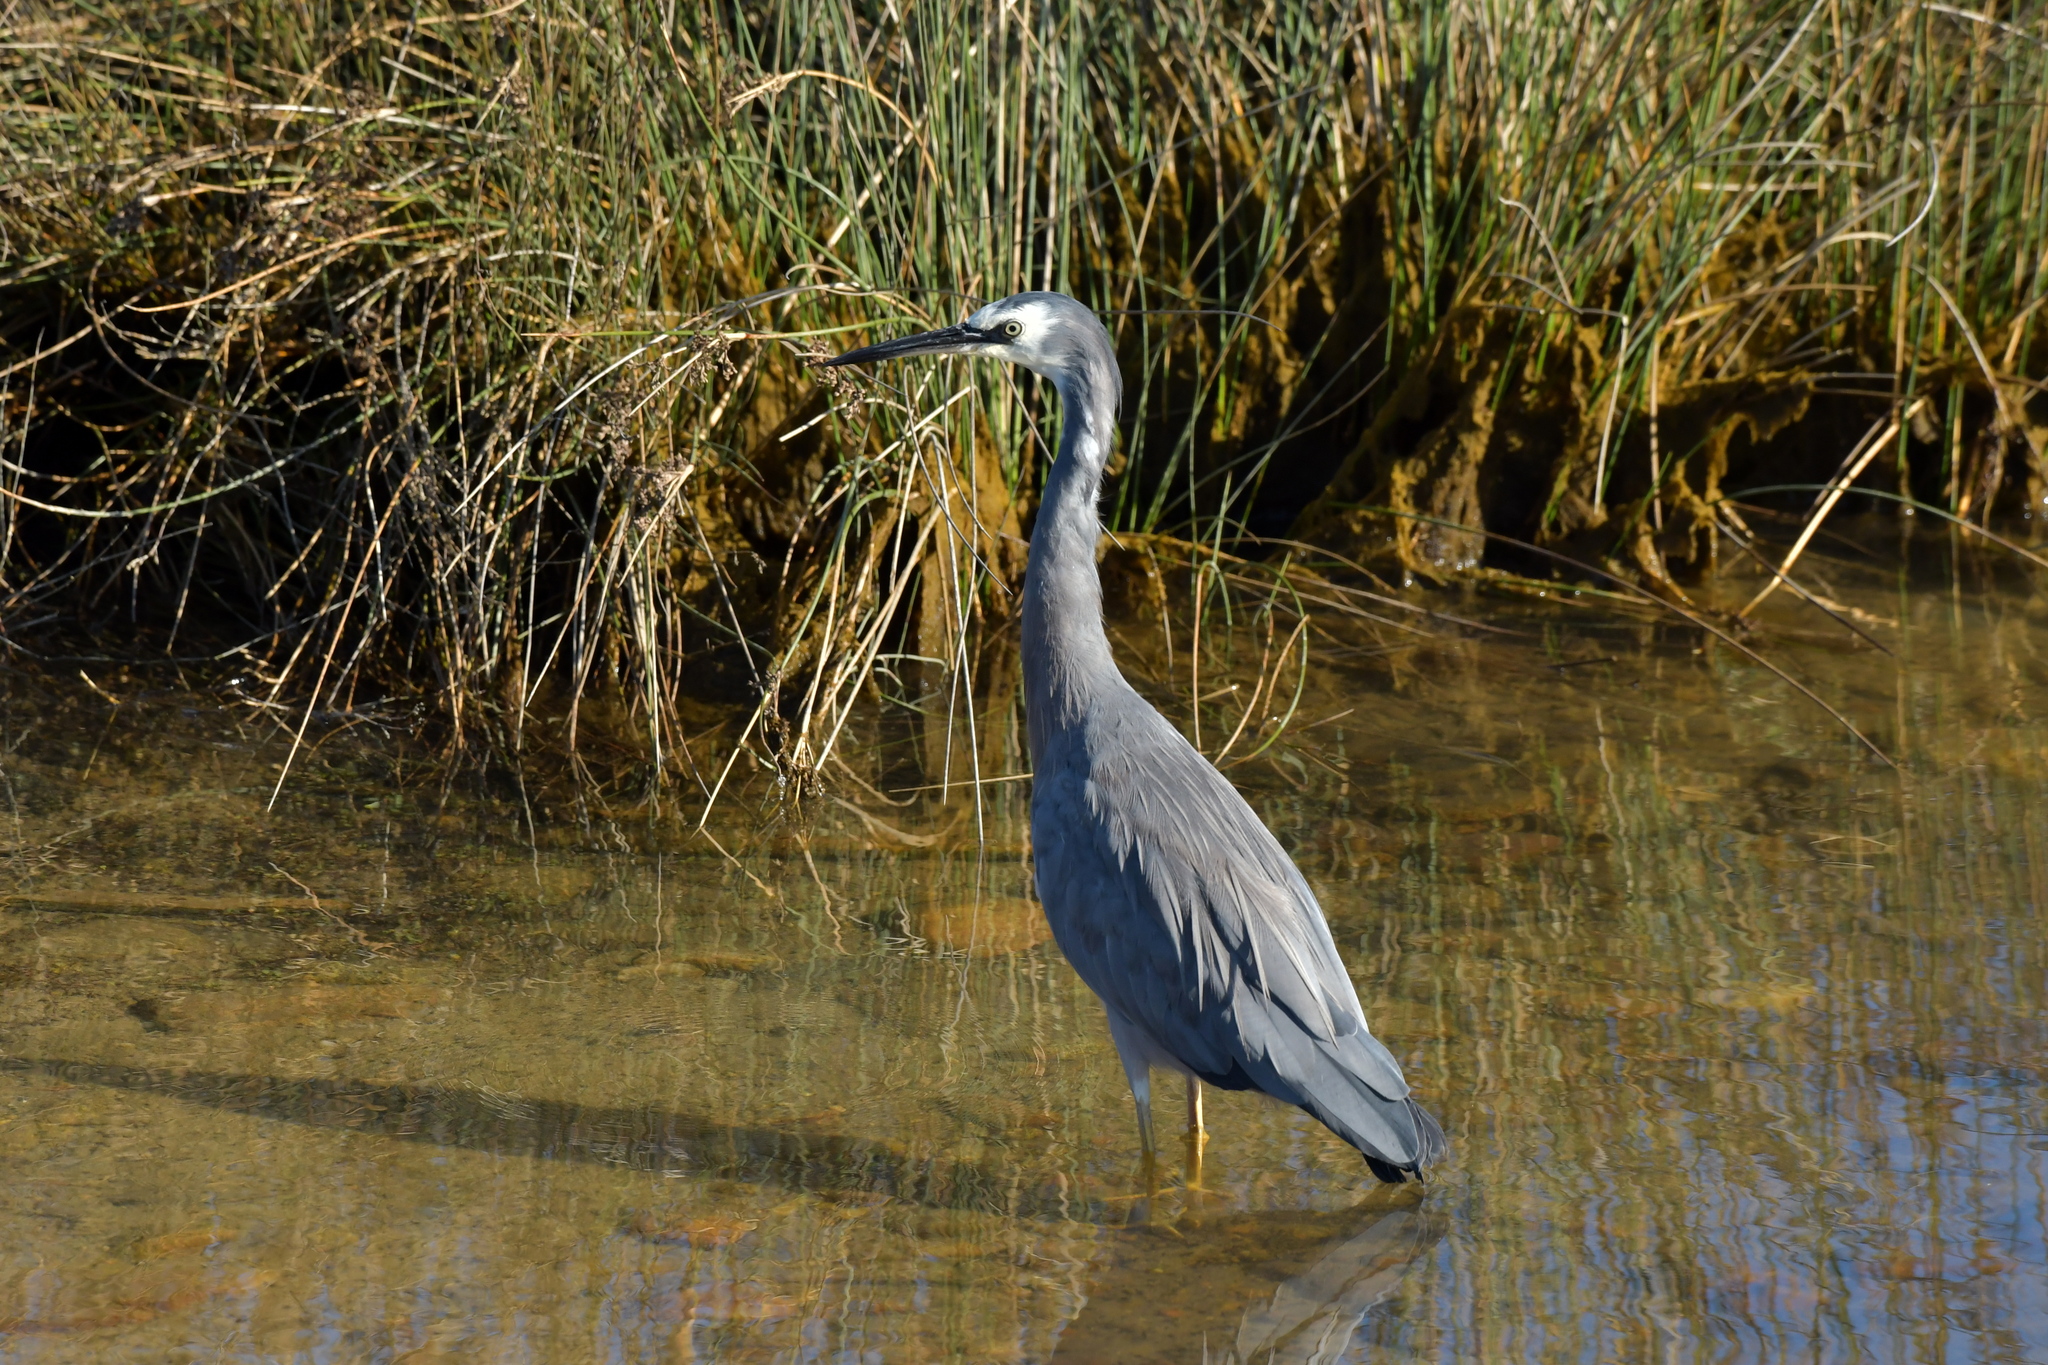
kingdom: Animalia
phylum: Chordata
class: Aves
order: Pelecaniformes
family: Ardeidae
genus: Egretta
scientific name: Egretta novaehollandiae
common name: White-faced heron
